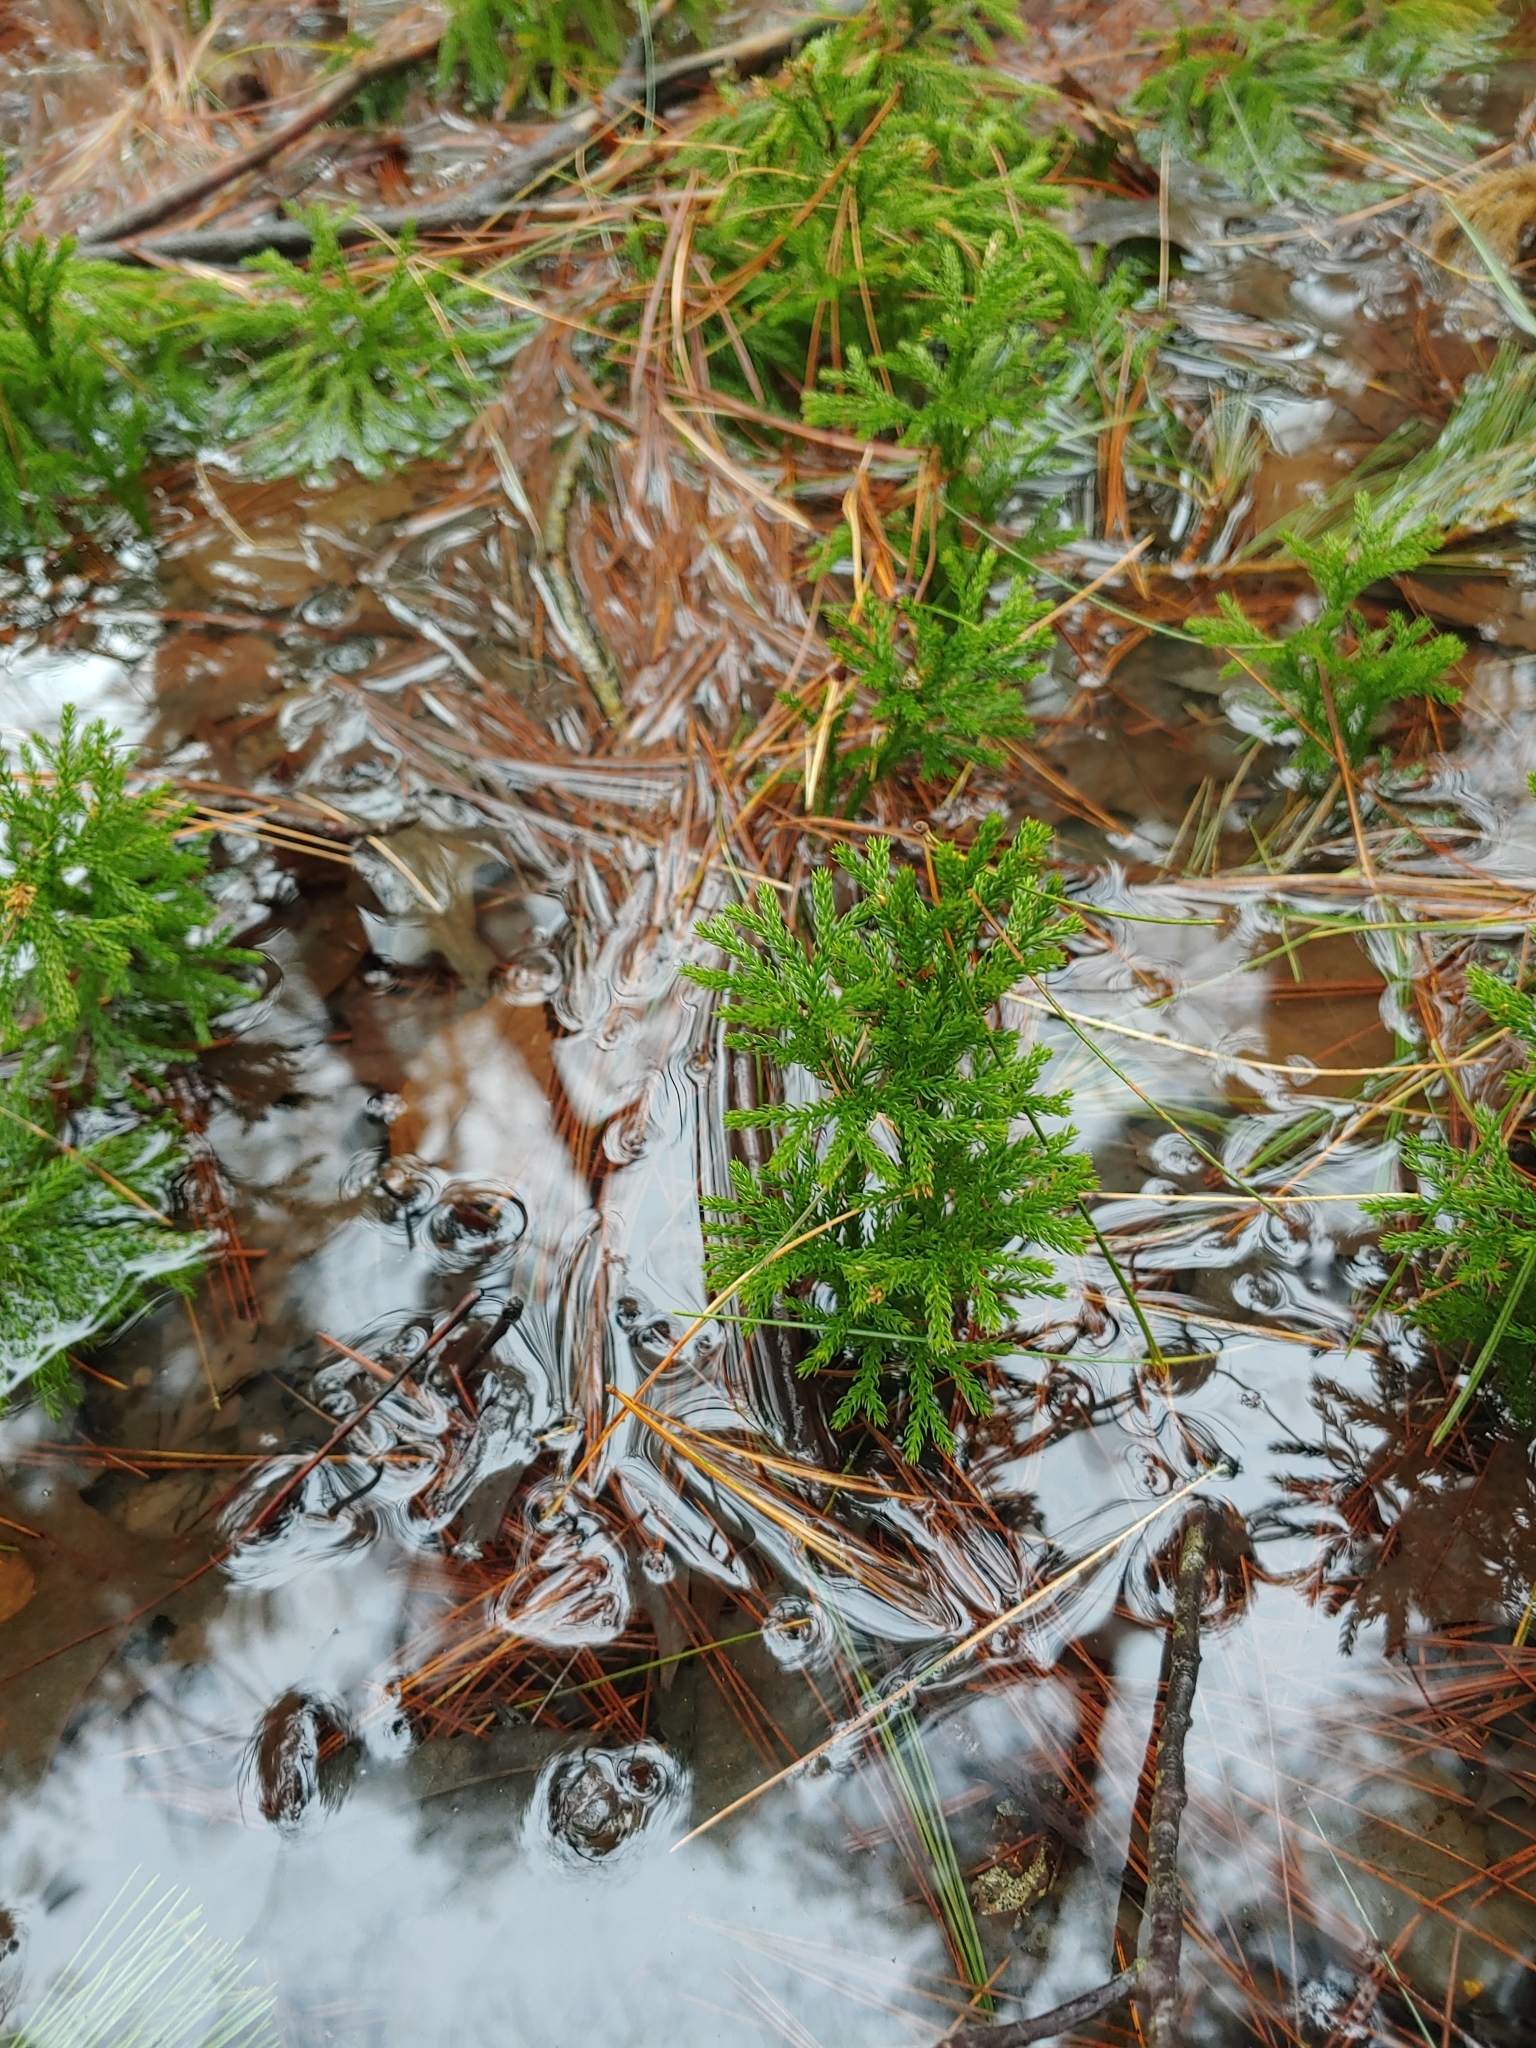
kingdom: Plantae
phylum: Tracheophyta
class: Lycopodiopsida
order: Lycopodiales
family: Lycopodiaceae
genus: Dendrolycopodium
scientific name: Dendrolycopodium hickeyi
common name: Hickey's clubmoss
